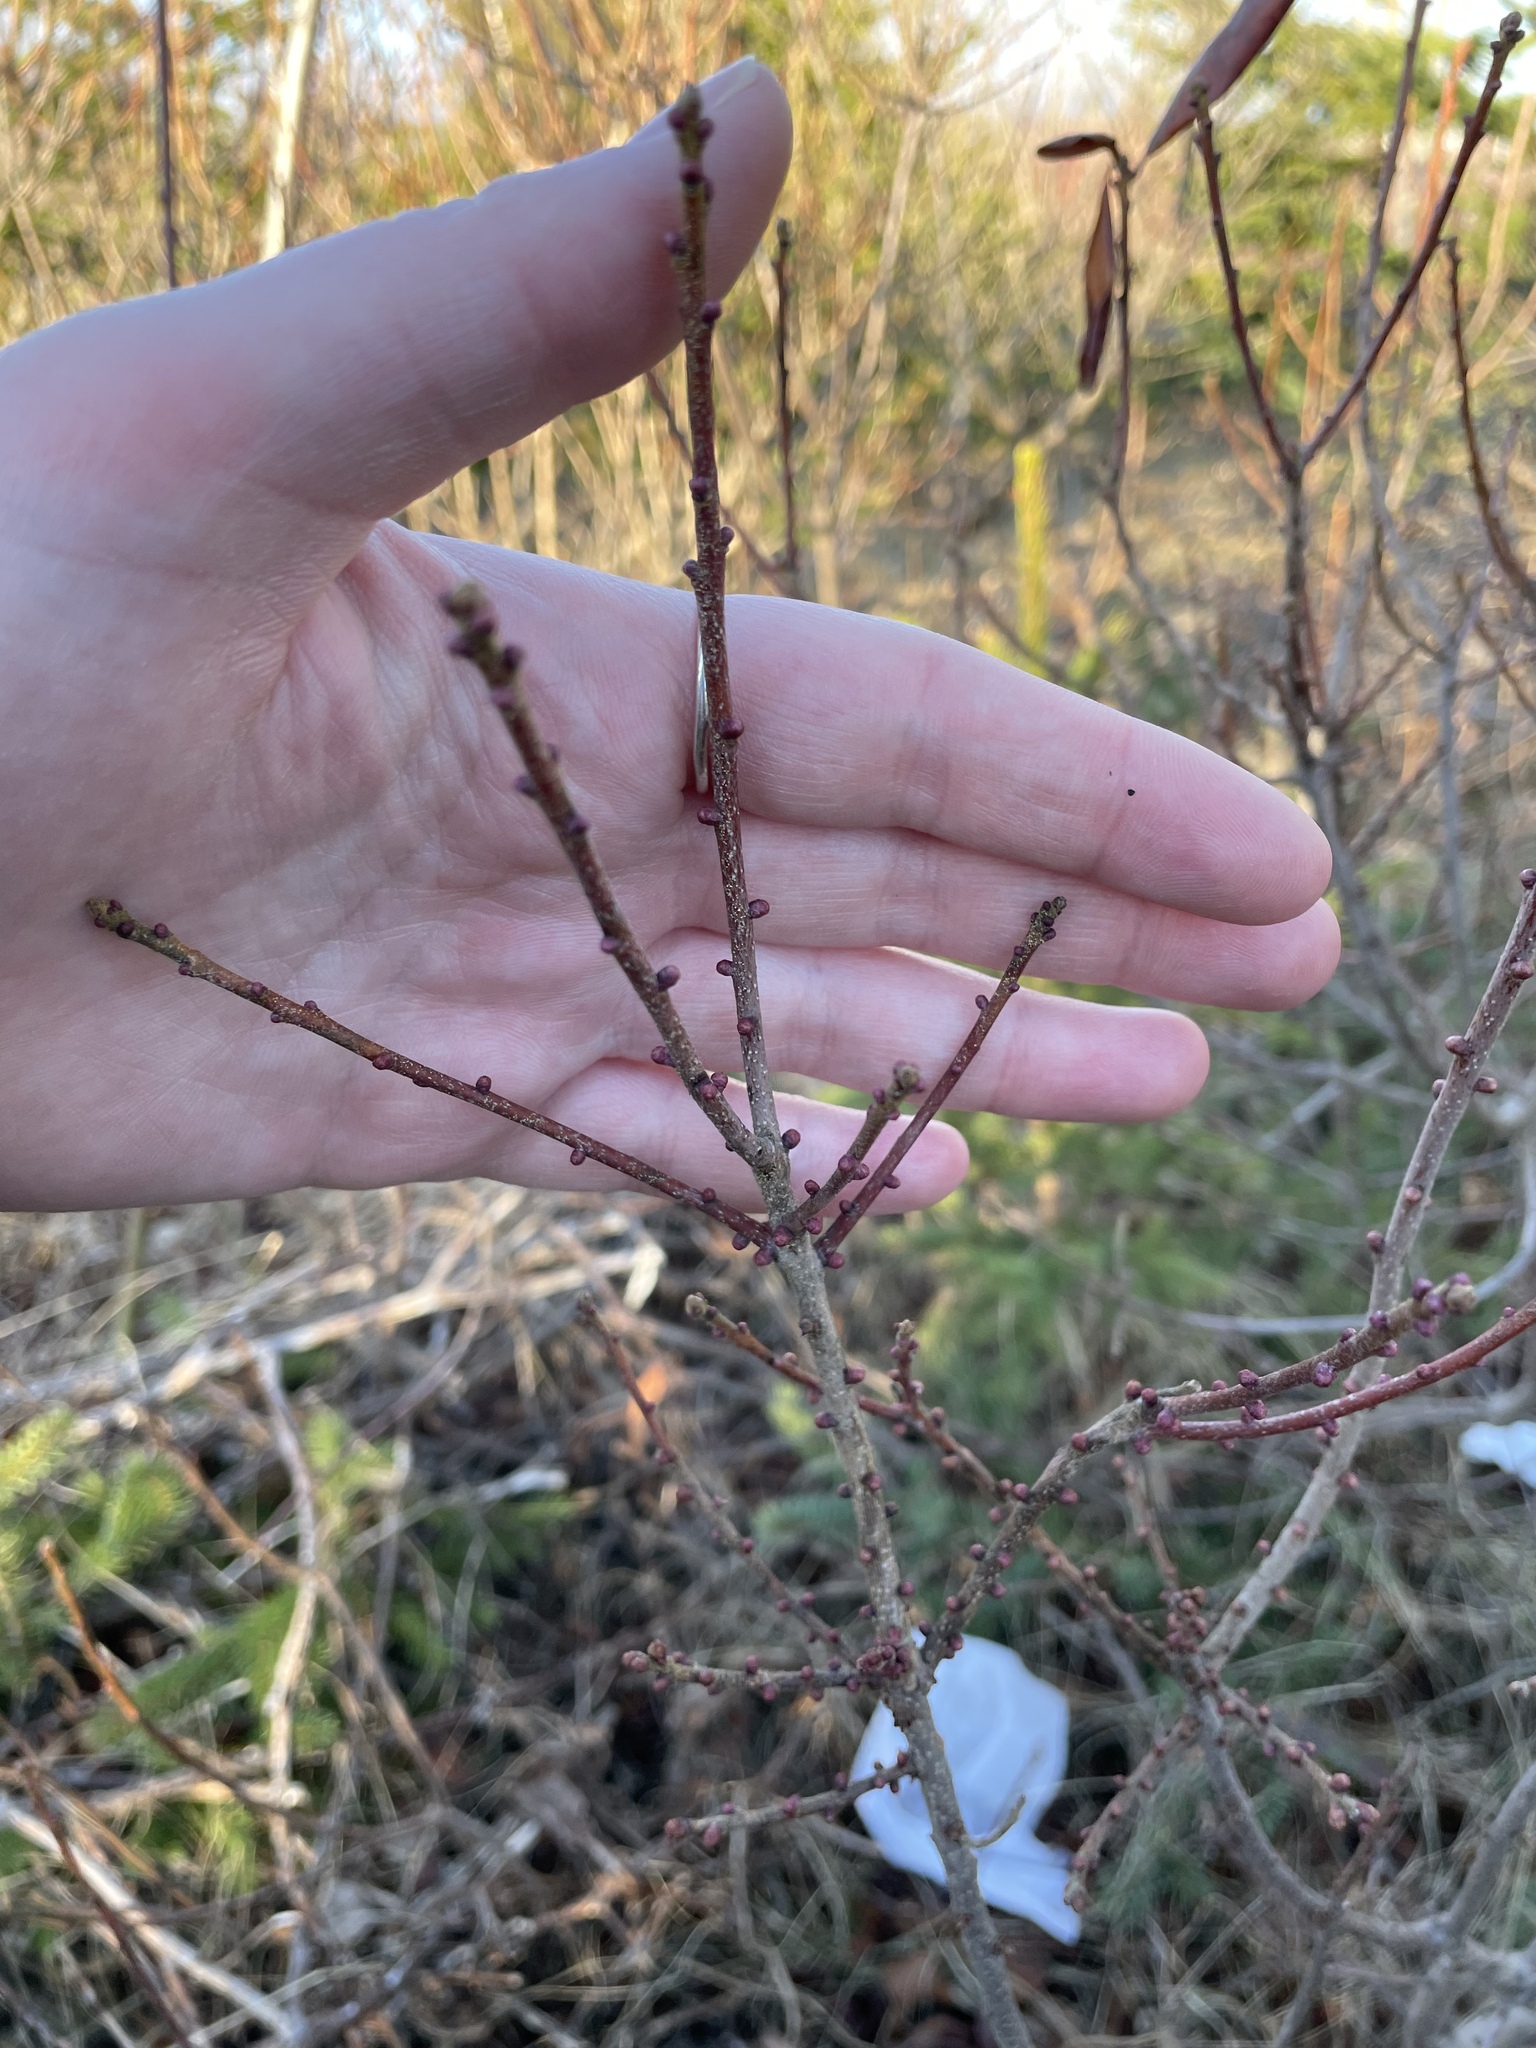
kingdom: Plantae
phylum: Tracheophyta
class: Magnoliopsida
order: Fagales
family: Myricaceae
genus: Morella
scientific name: Morella pensylvanica
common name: Northern bayberry
